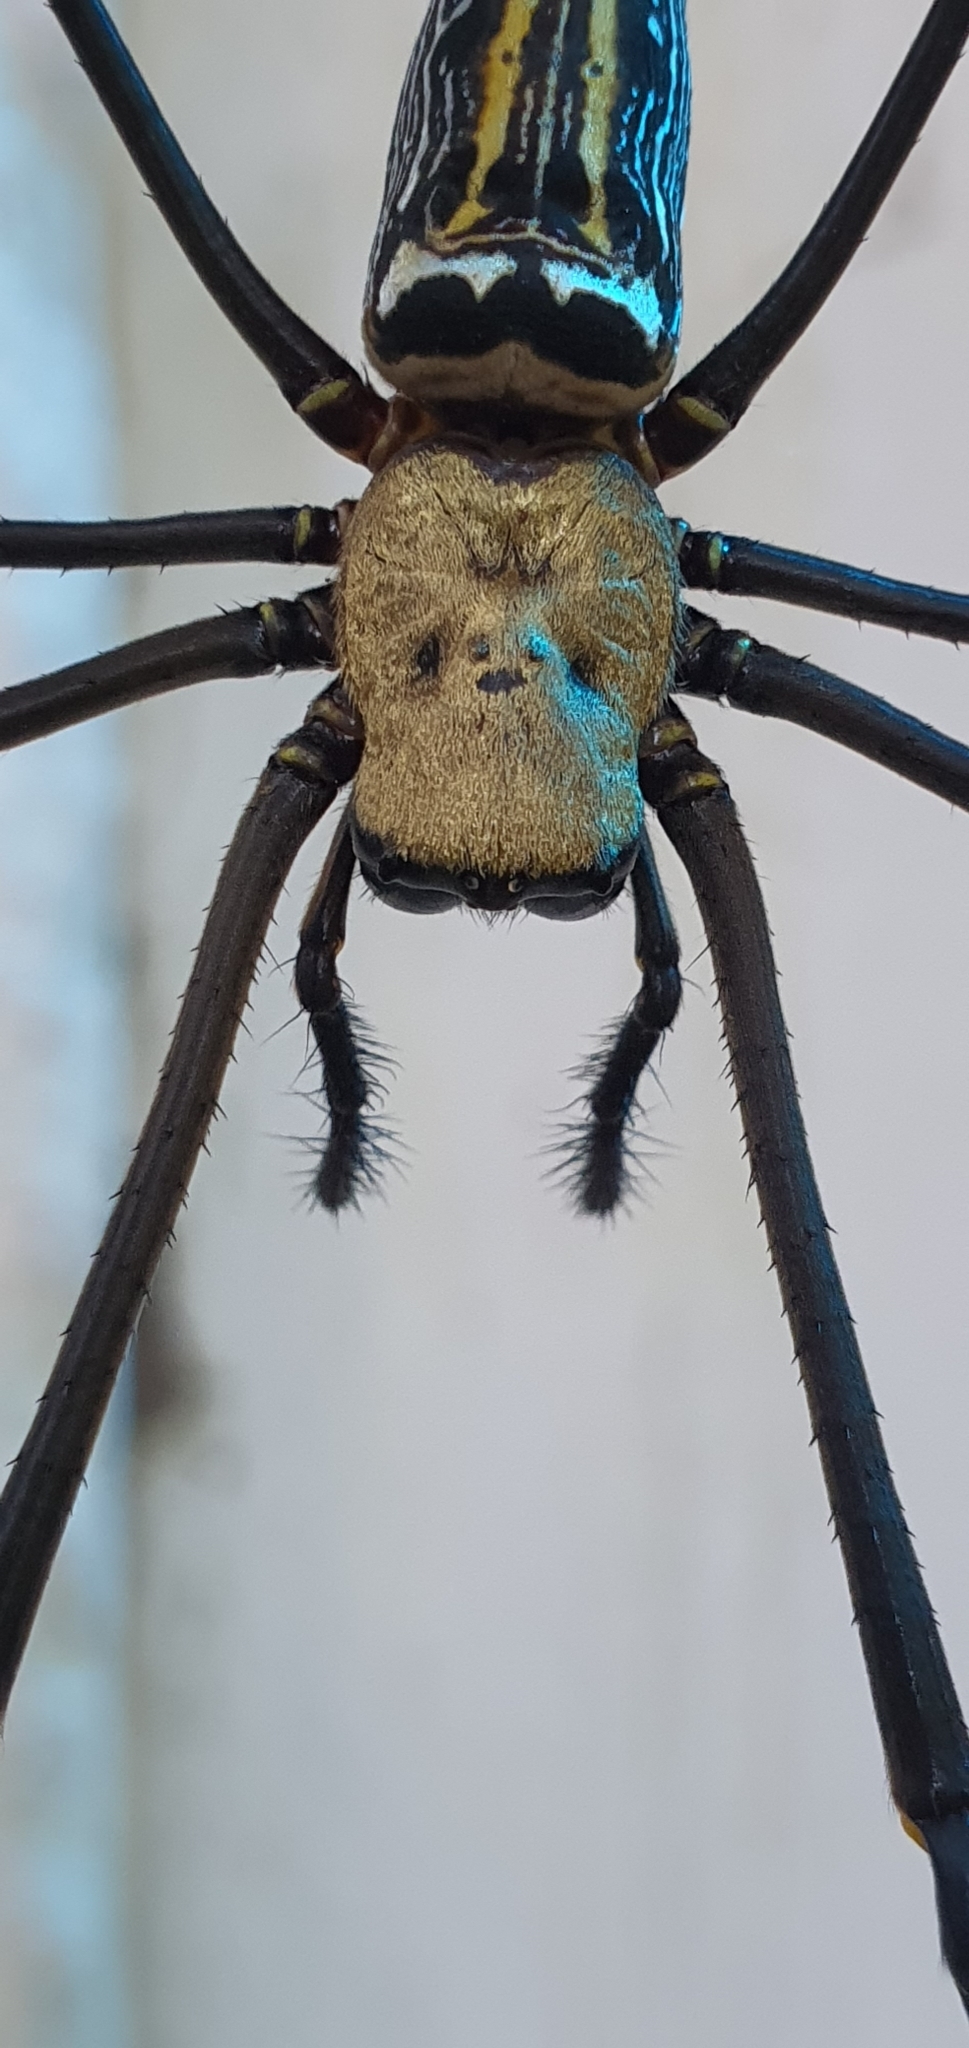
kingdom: Animalia
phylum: Arthropoda
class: Arachnida
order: Araneae
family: Araneidae
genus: Nephila
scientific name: Nephila pilipes
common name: Giant golden orb weaver
